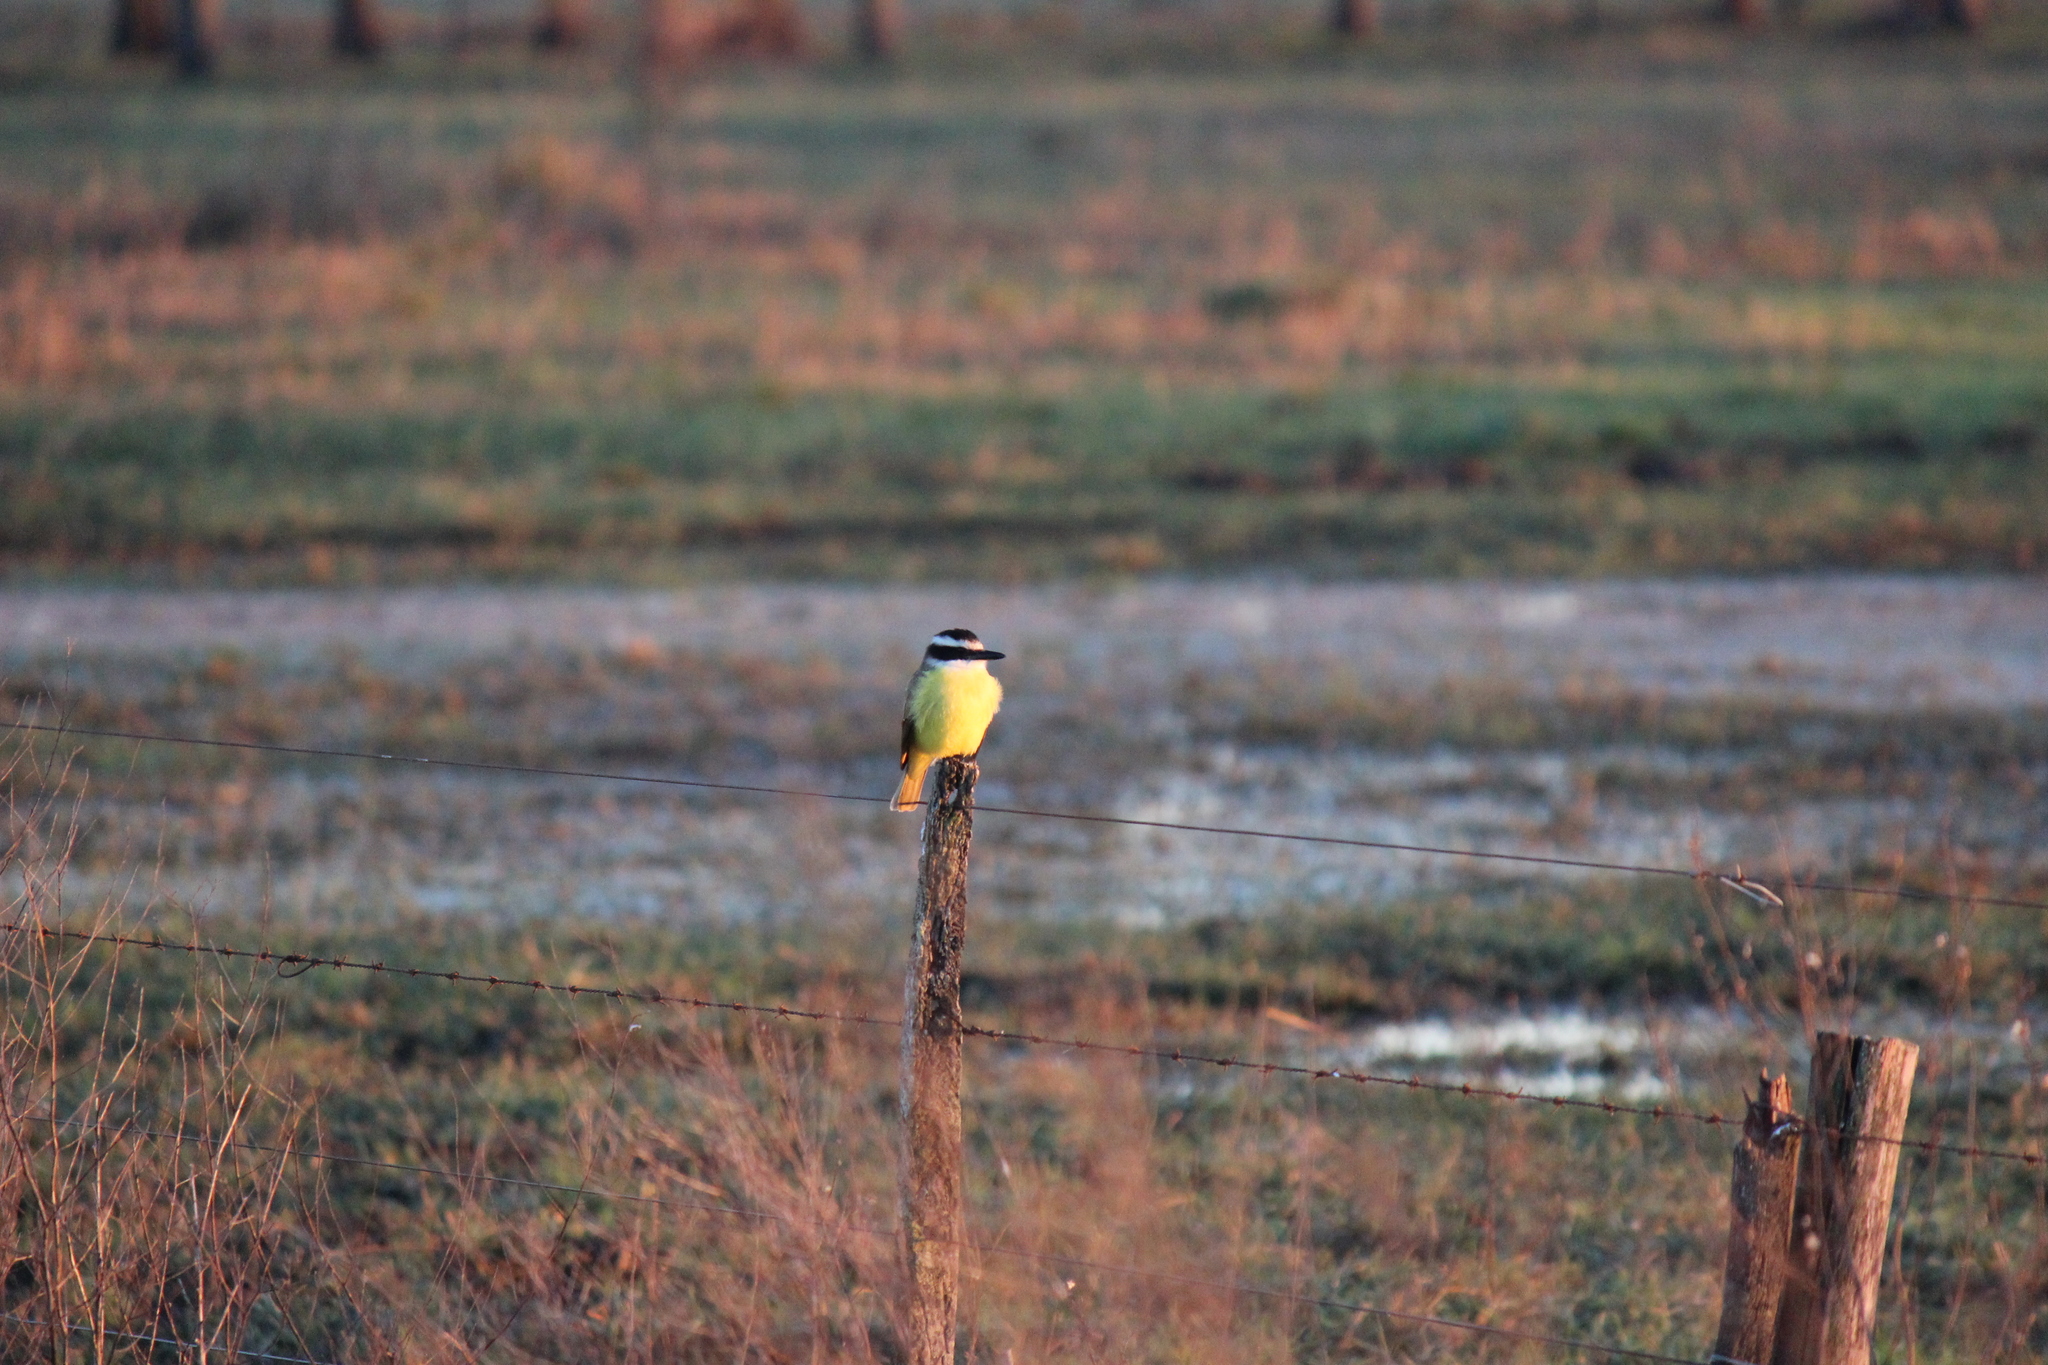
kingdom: Animalia
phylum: Chordata
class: Aves
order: Passeriformes
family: Tyrannidae
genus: Pitangus
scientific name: Pitangus sulphuratus
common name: Great kiskadee
